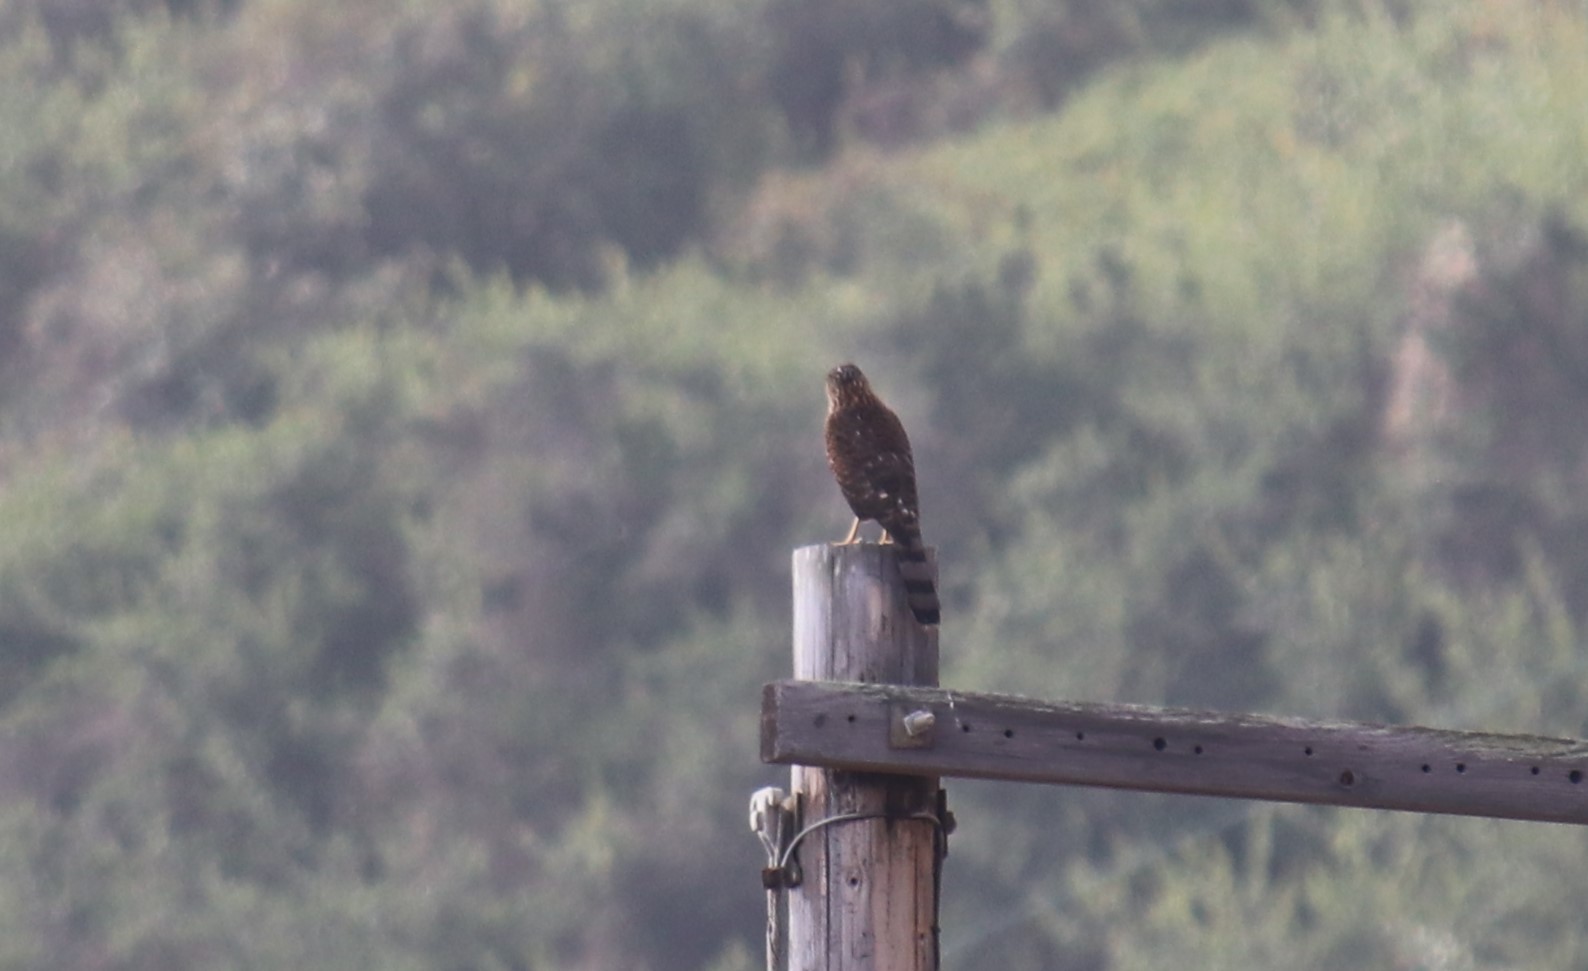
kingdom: Animalia
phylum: Chordata
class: Aves
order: Accipitriformes
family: Accipitridae
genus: Accipiter
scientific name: Accipiter cooperii
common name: Cooper's hawk
